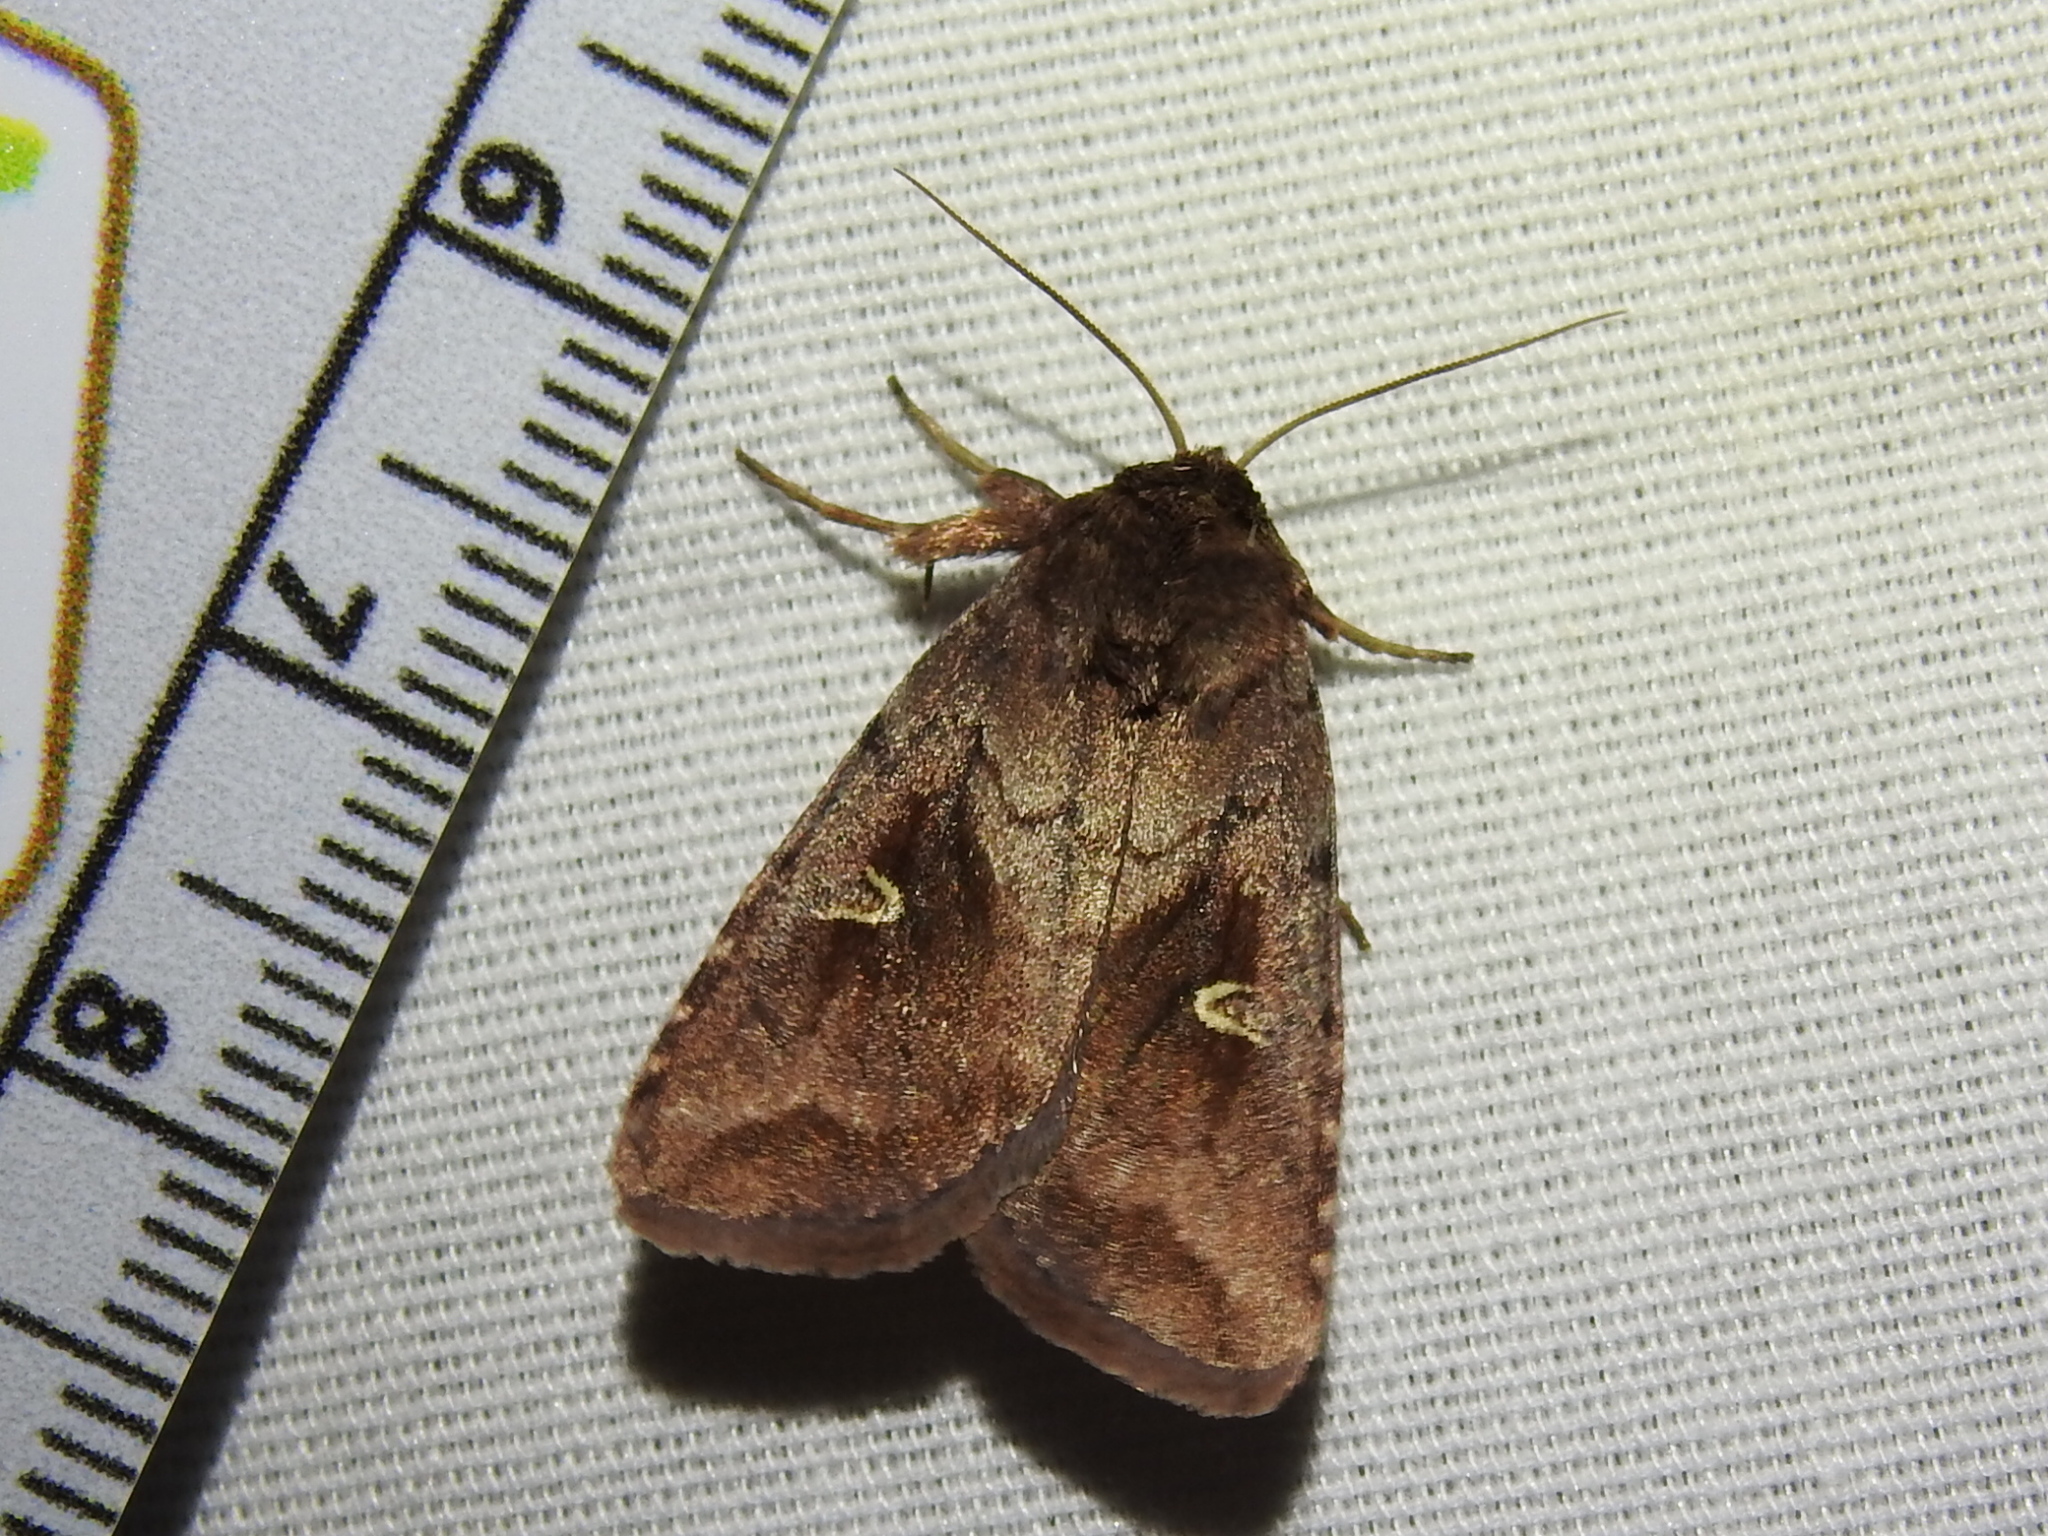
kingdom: Animalia
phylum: Arthropoda
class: Insecta
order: Lepidoptera
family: Noctuidae
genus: Iodopepla
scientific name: Iodopepla ualbum
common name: White-eyed borer moth
